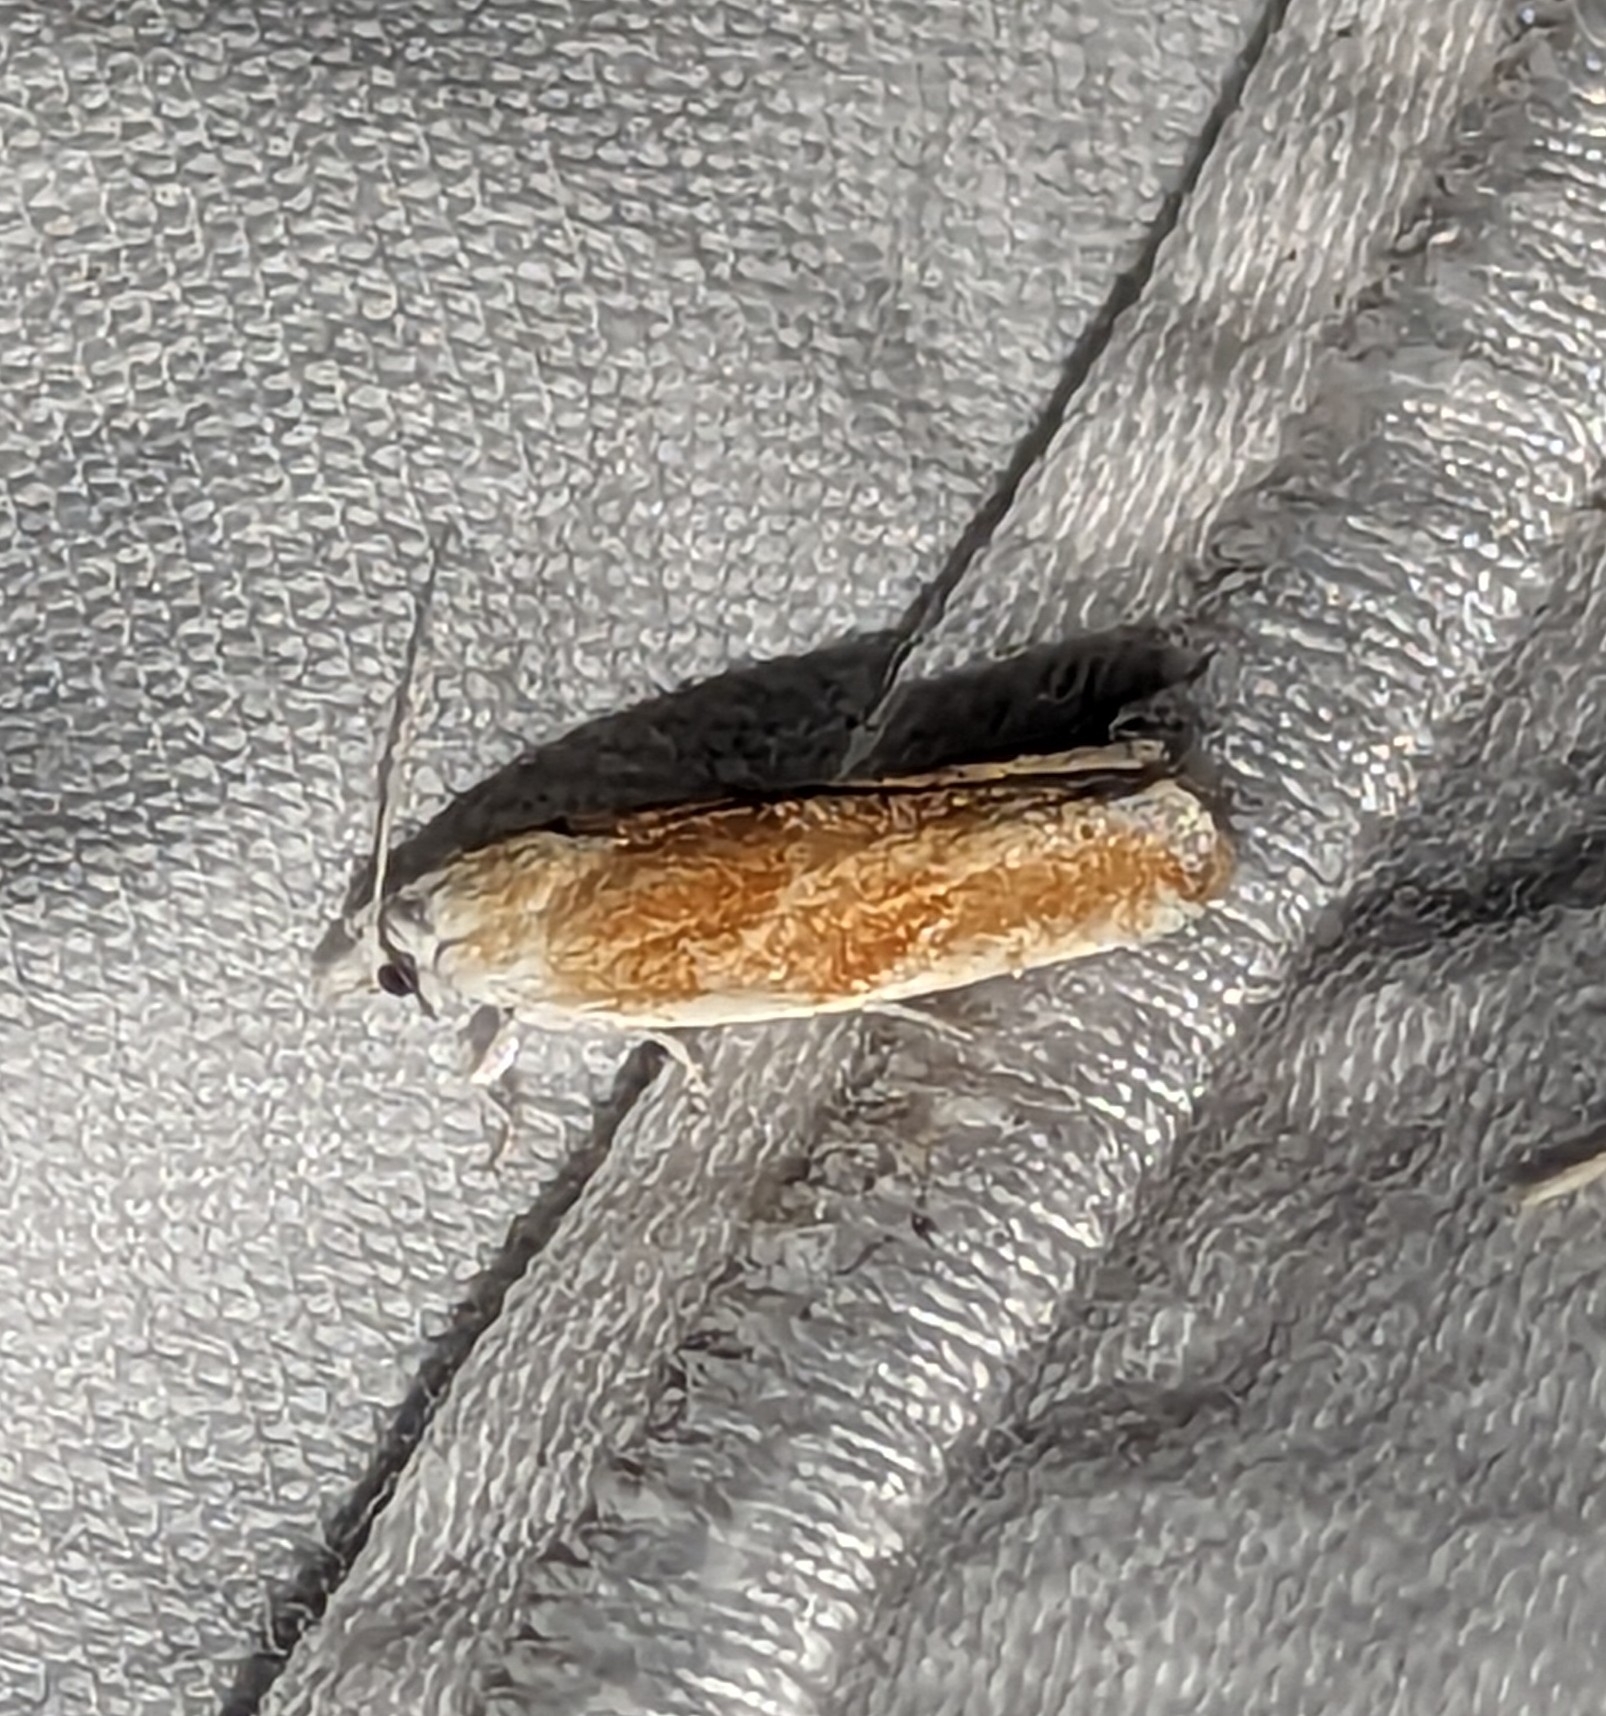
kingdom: Animalia
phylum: Arthropoda
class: Insecta
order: Lepidoptera
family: Tortricidae
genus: Eucosma
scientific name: Eucosma setonana
